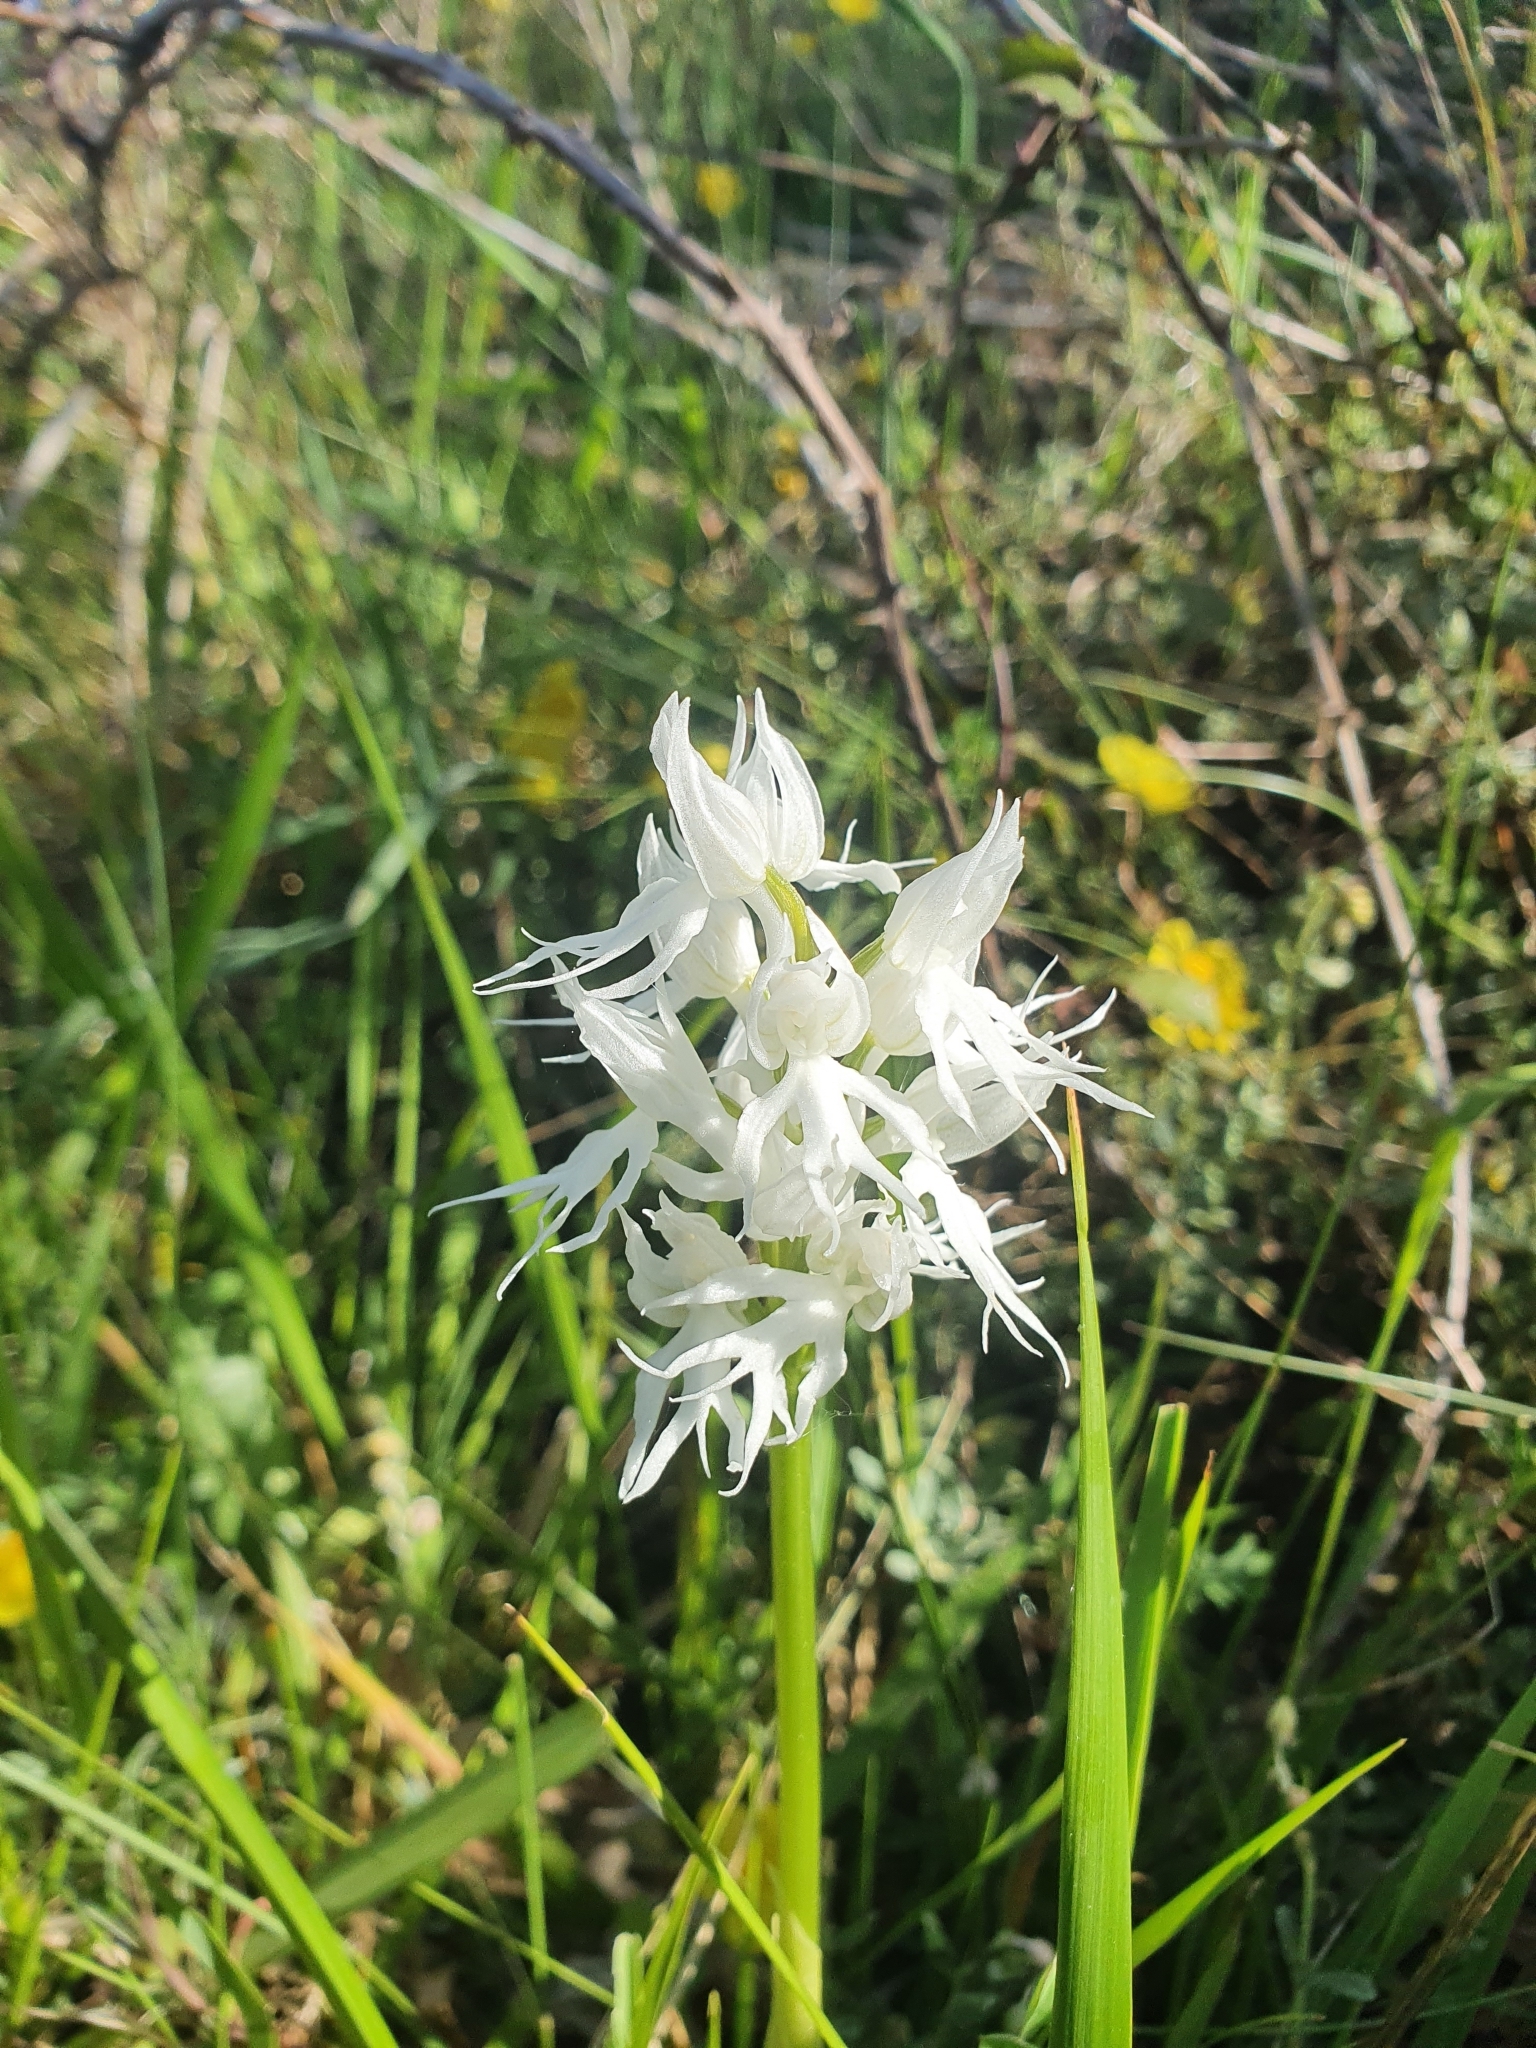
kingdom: Plantae
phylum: Tracheophyta
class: Liliopsida
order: Asparagales
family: Orchidaceae
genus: Orchis
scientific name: Orchis italica
